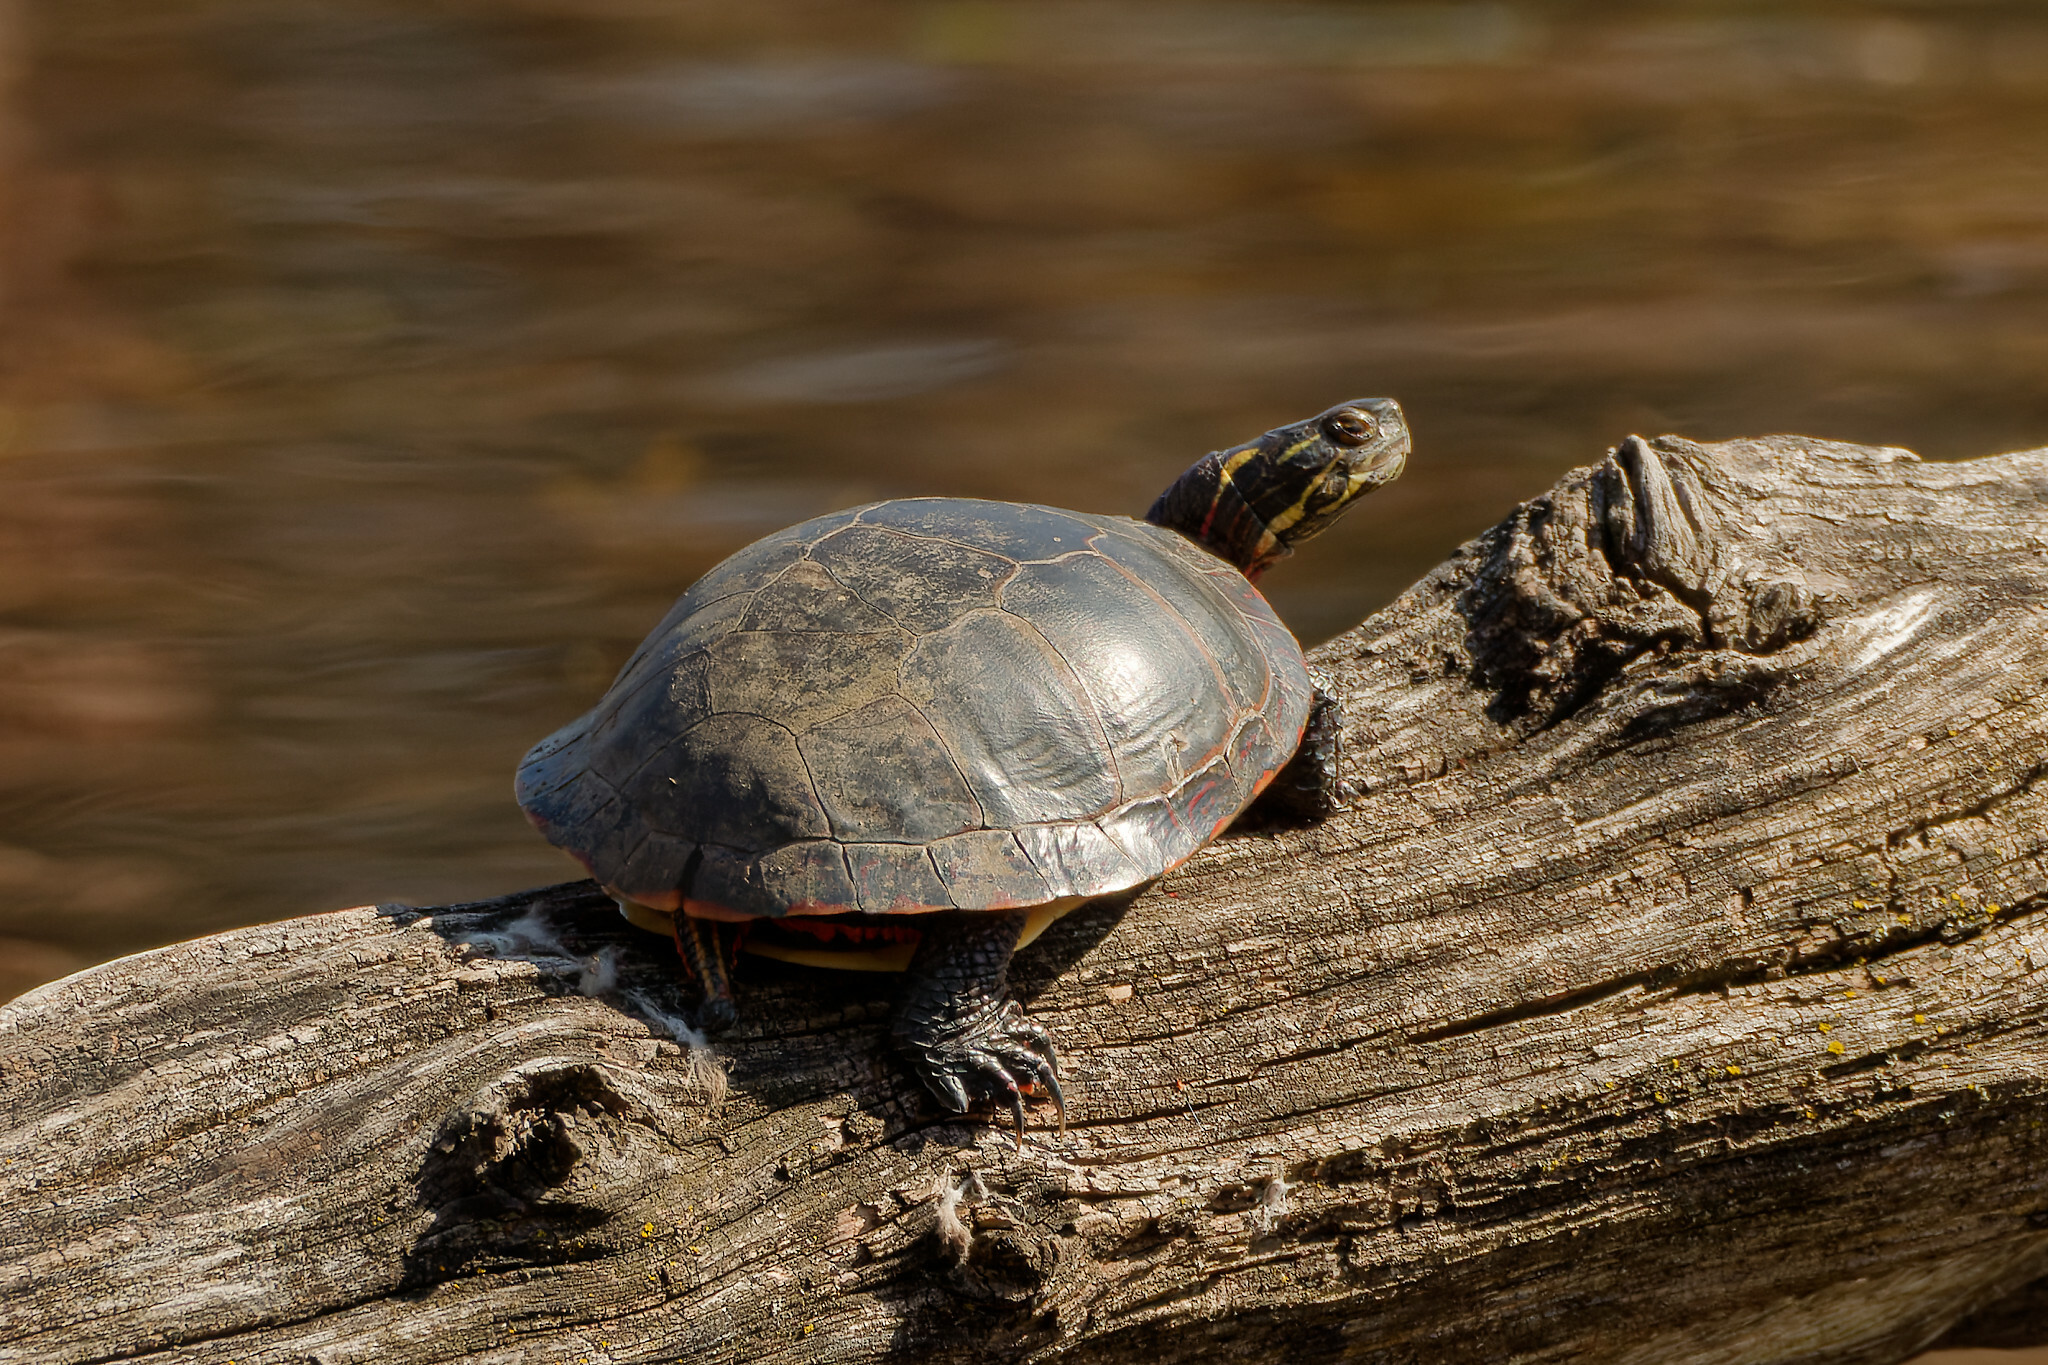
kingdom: Animalia
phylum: Chordata
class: Testudines
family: Emydidae
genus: Chrysemys
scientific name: Chrysemys picta
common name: Painted turtle
